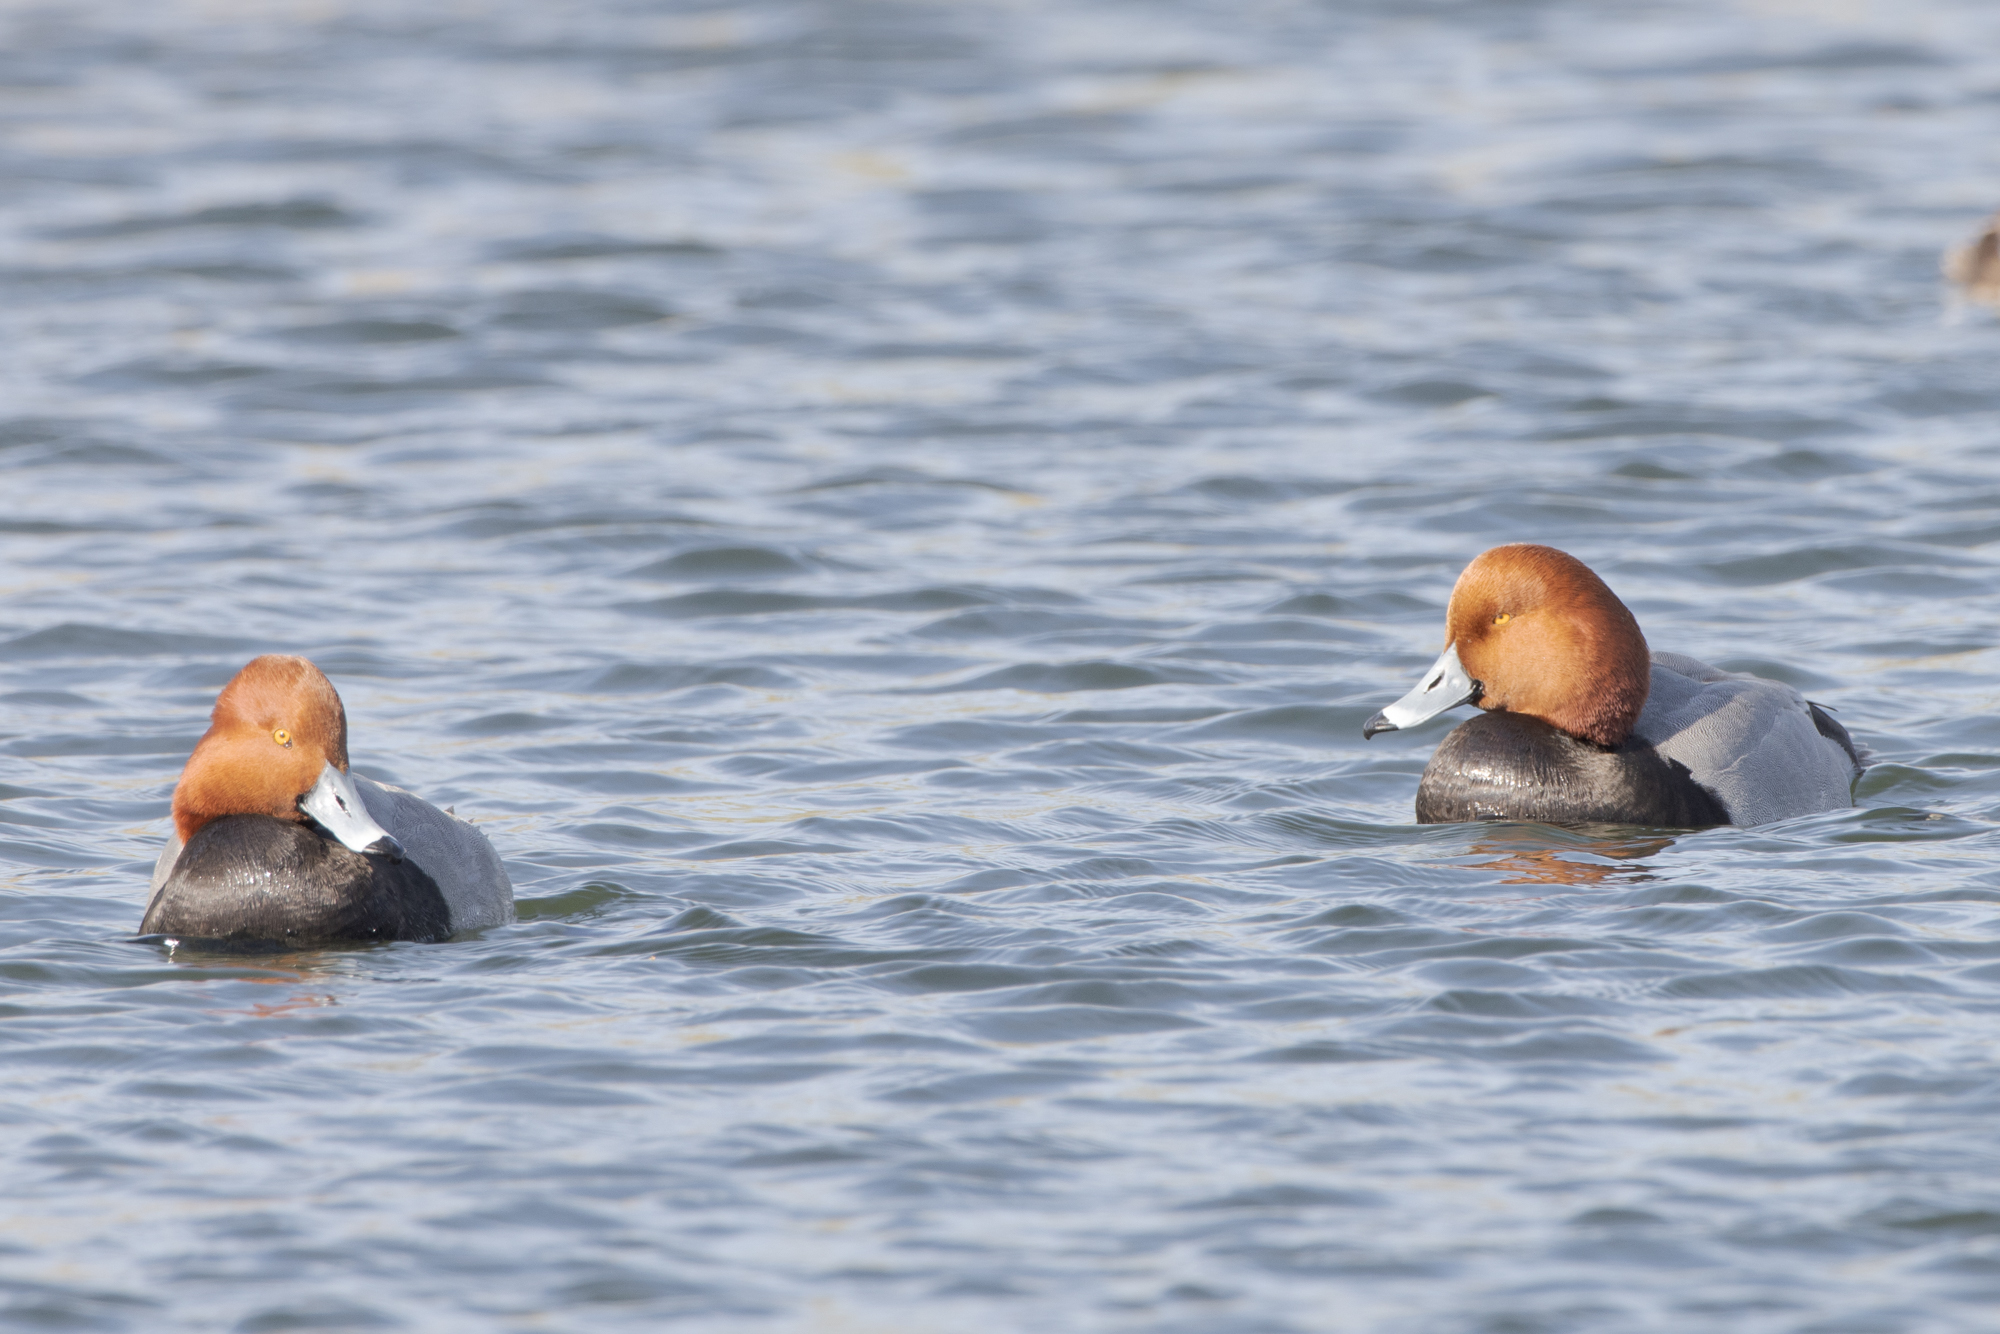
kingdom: Animalia
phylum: Chordata
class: Aves
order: Anseriformes
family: Anatidae
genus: Aythya
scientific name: Aythya americana
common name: Redhead
